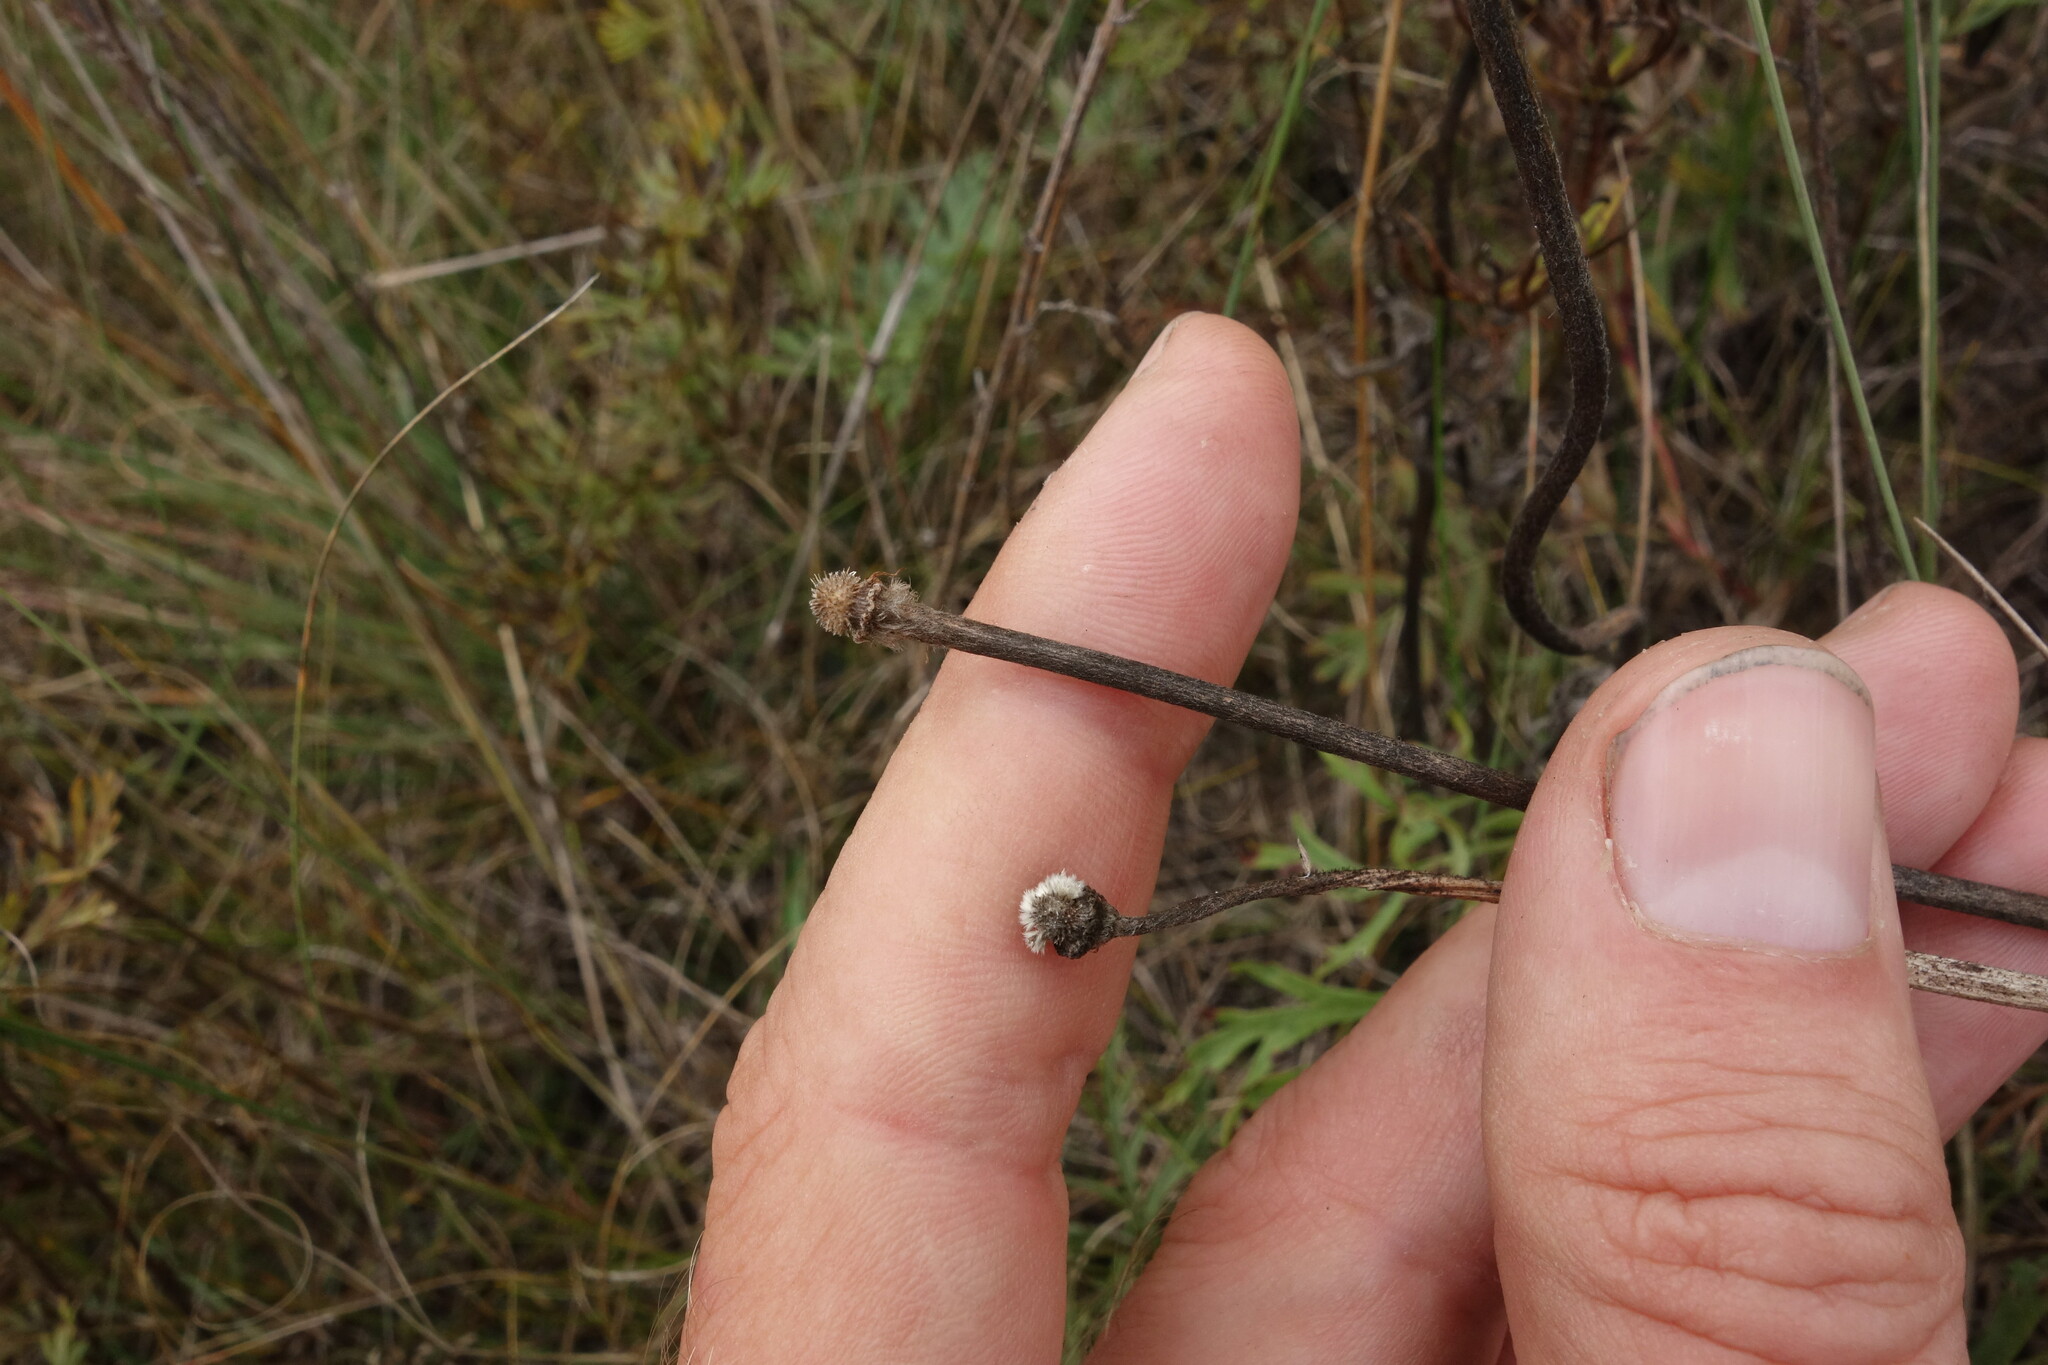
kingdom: Plantae
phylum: Tracheophyta
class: Magnoliopsida
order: Ranunculales
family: Ranunculaceae
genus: Pulsatilla
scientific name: Pulsatilla turczaninovii
